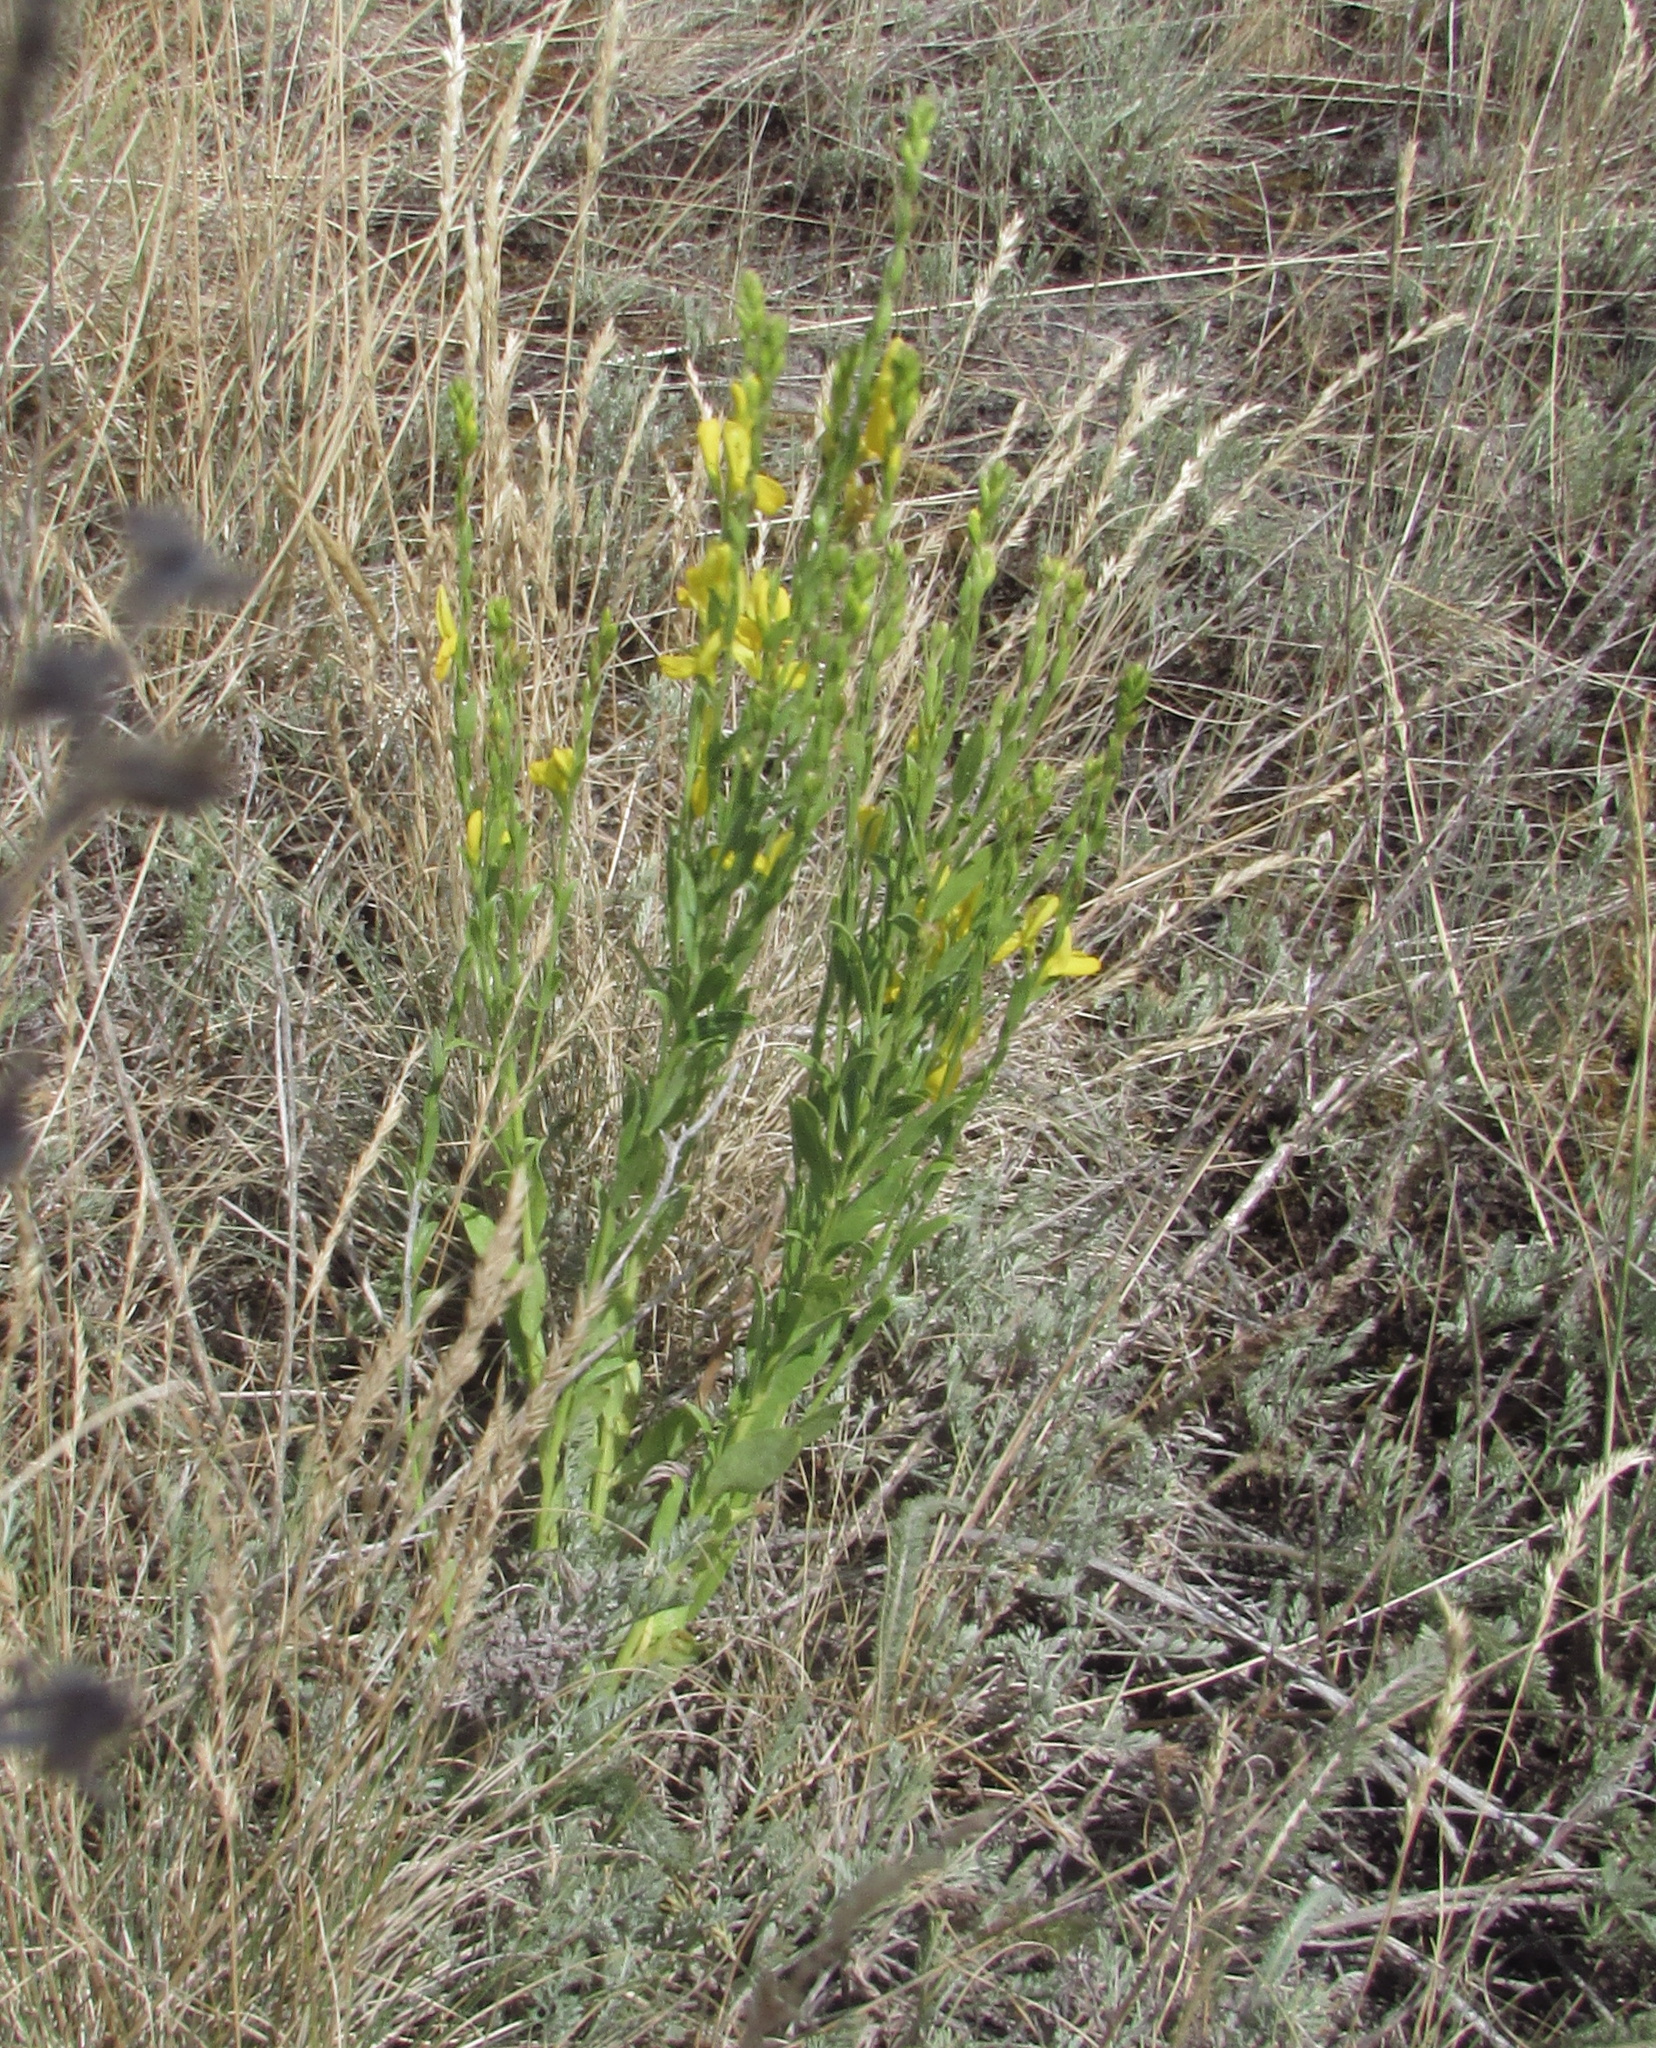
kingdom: Plantae
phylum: Tracheophyta
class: Magnoliopsida
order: Fabales
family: Fabaceae
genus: Genista
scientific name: Genista tinctoria
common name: Dyer's greenweed
